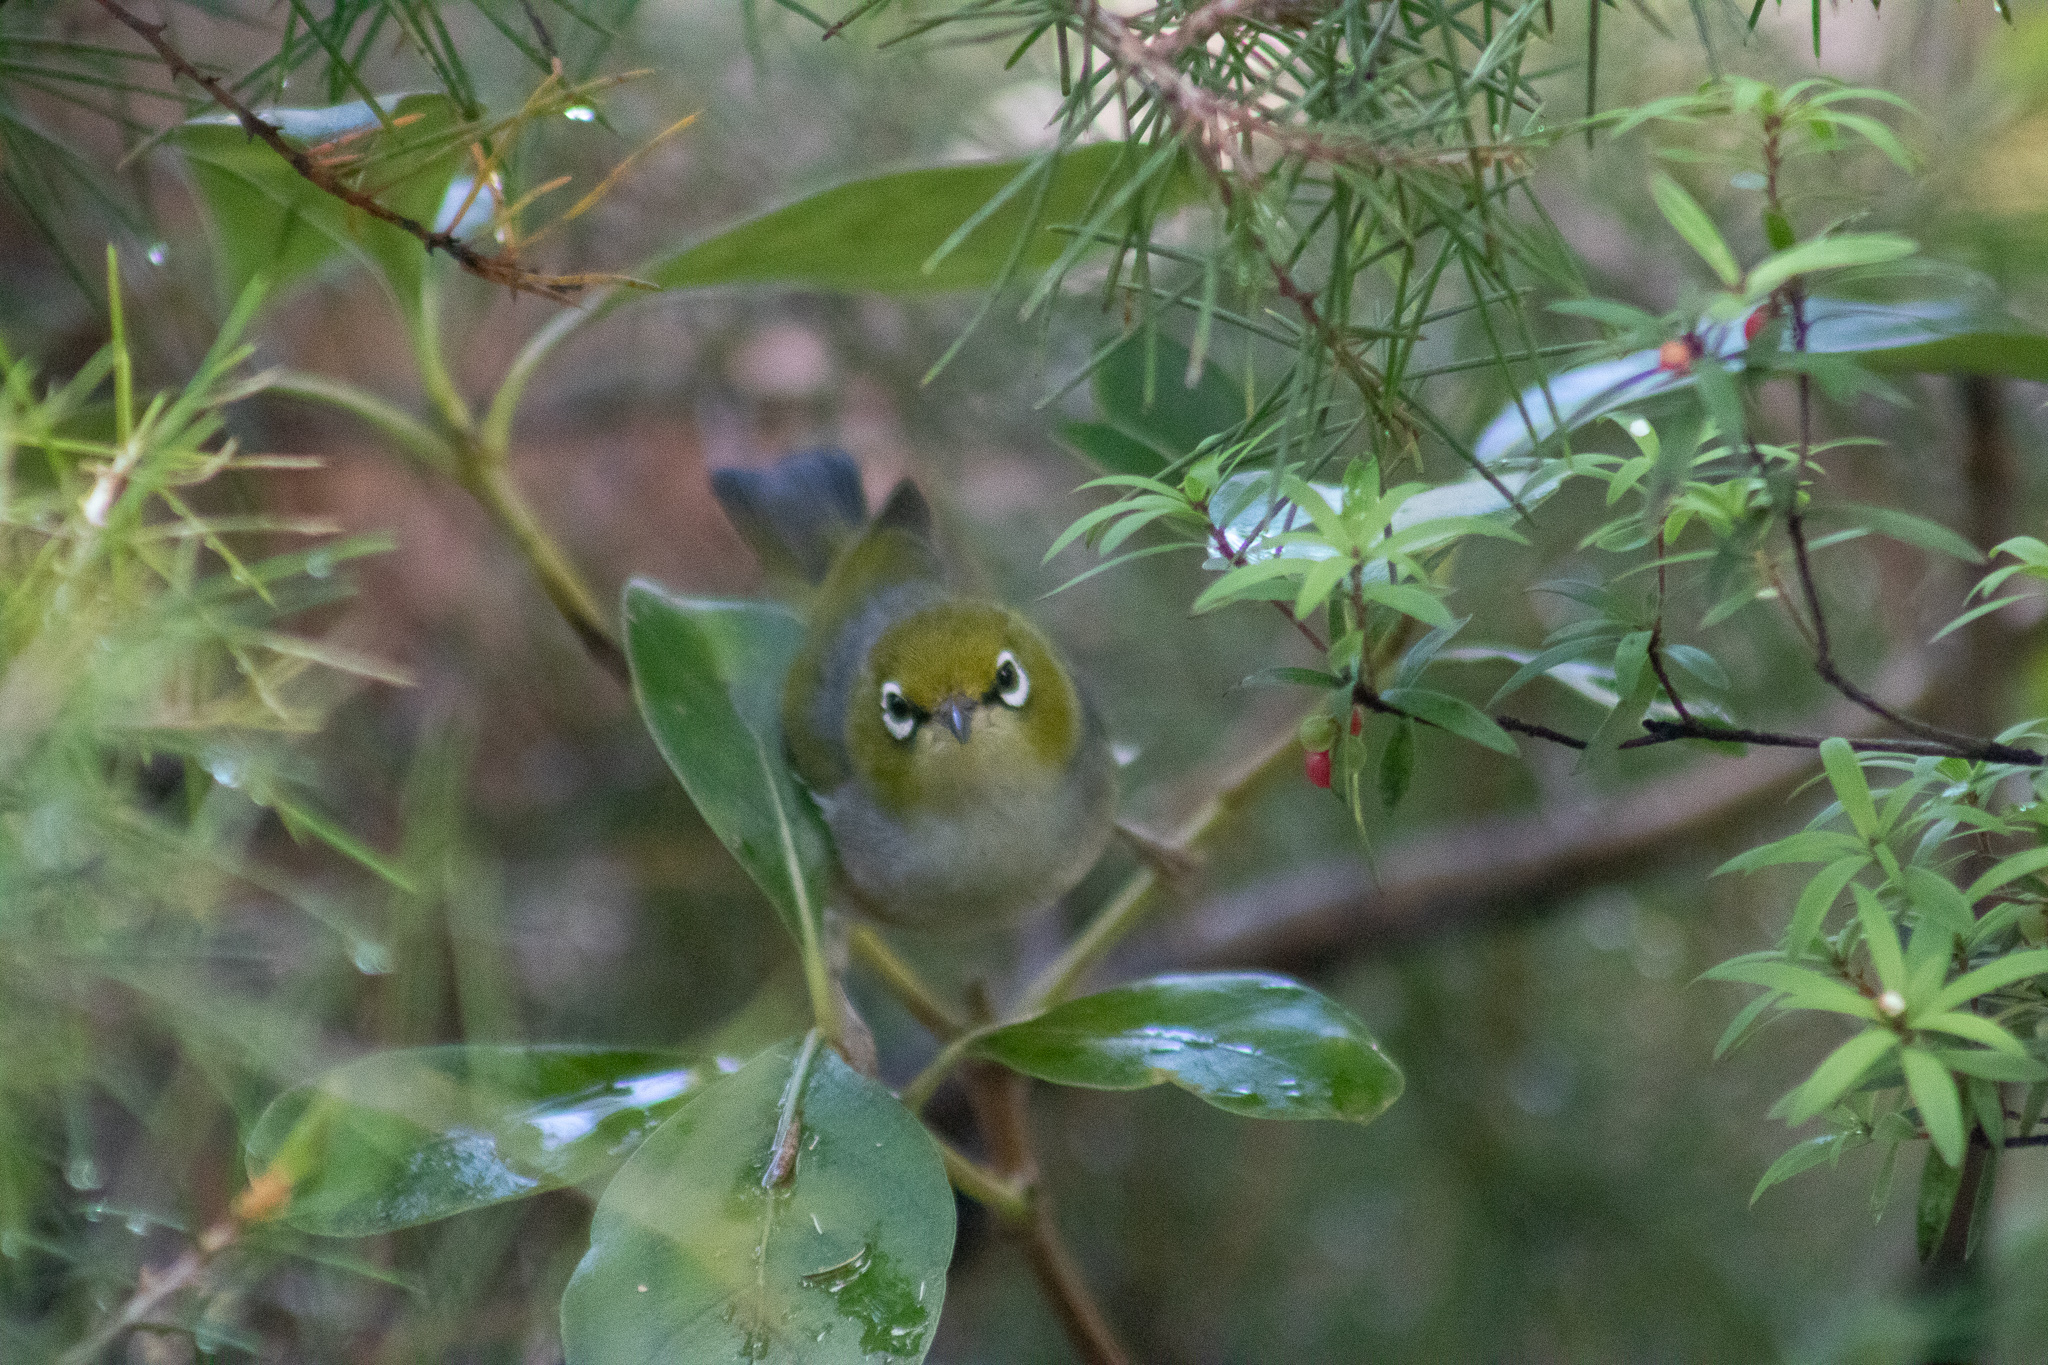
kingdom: Animalia
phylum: Chordata
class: Aves
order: Passeriformes
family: Zosteropidae
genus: Zosterops
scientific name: Zosterops lateralis
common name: Silvereye
